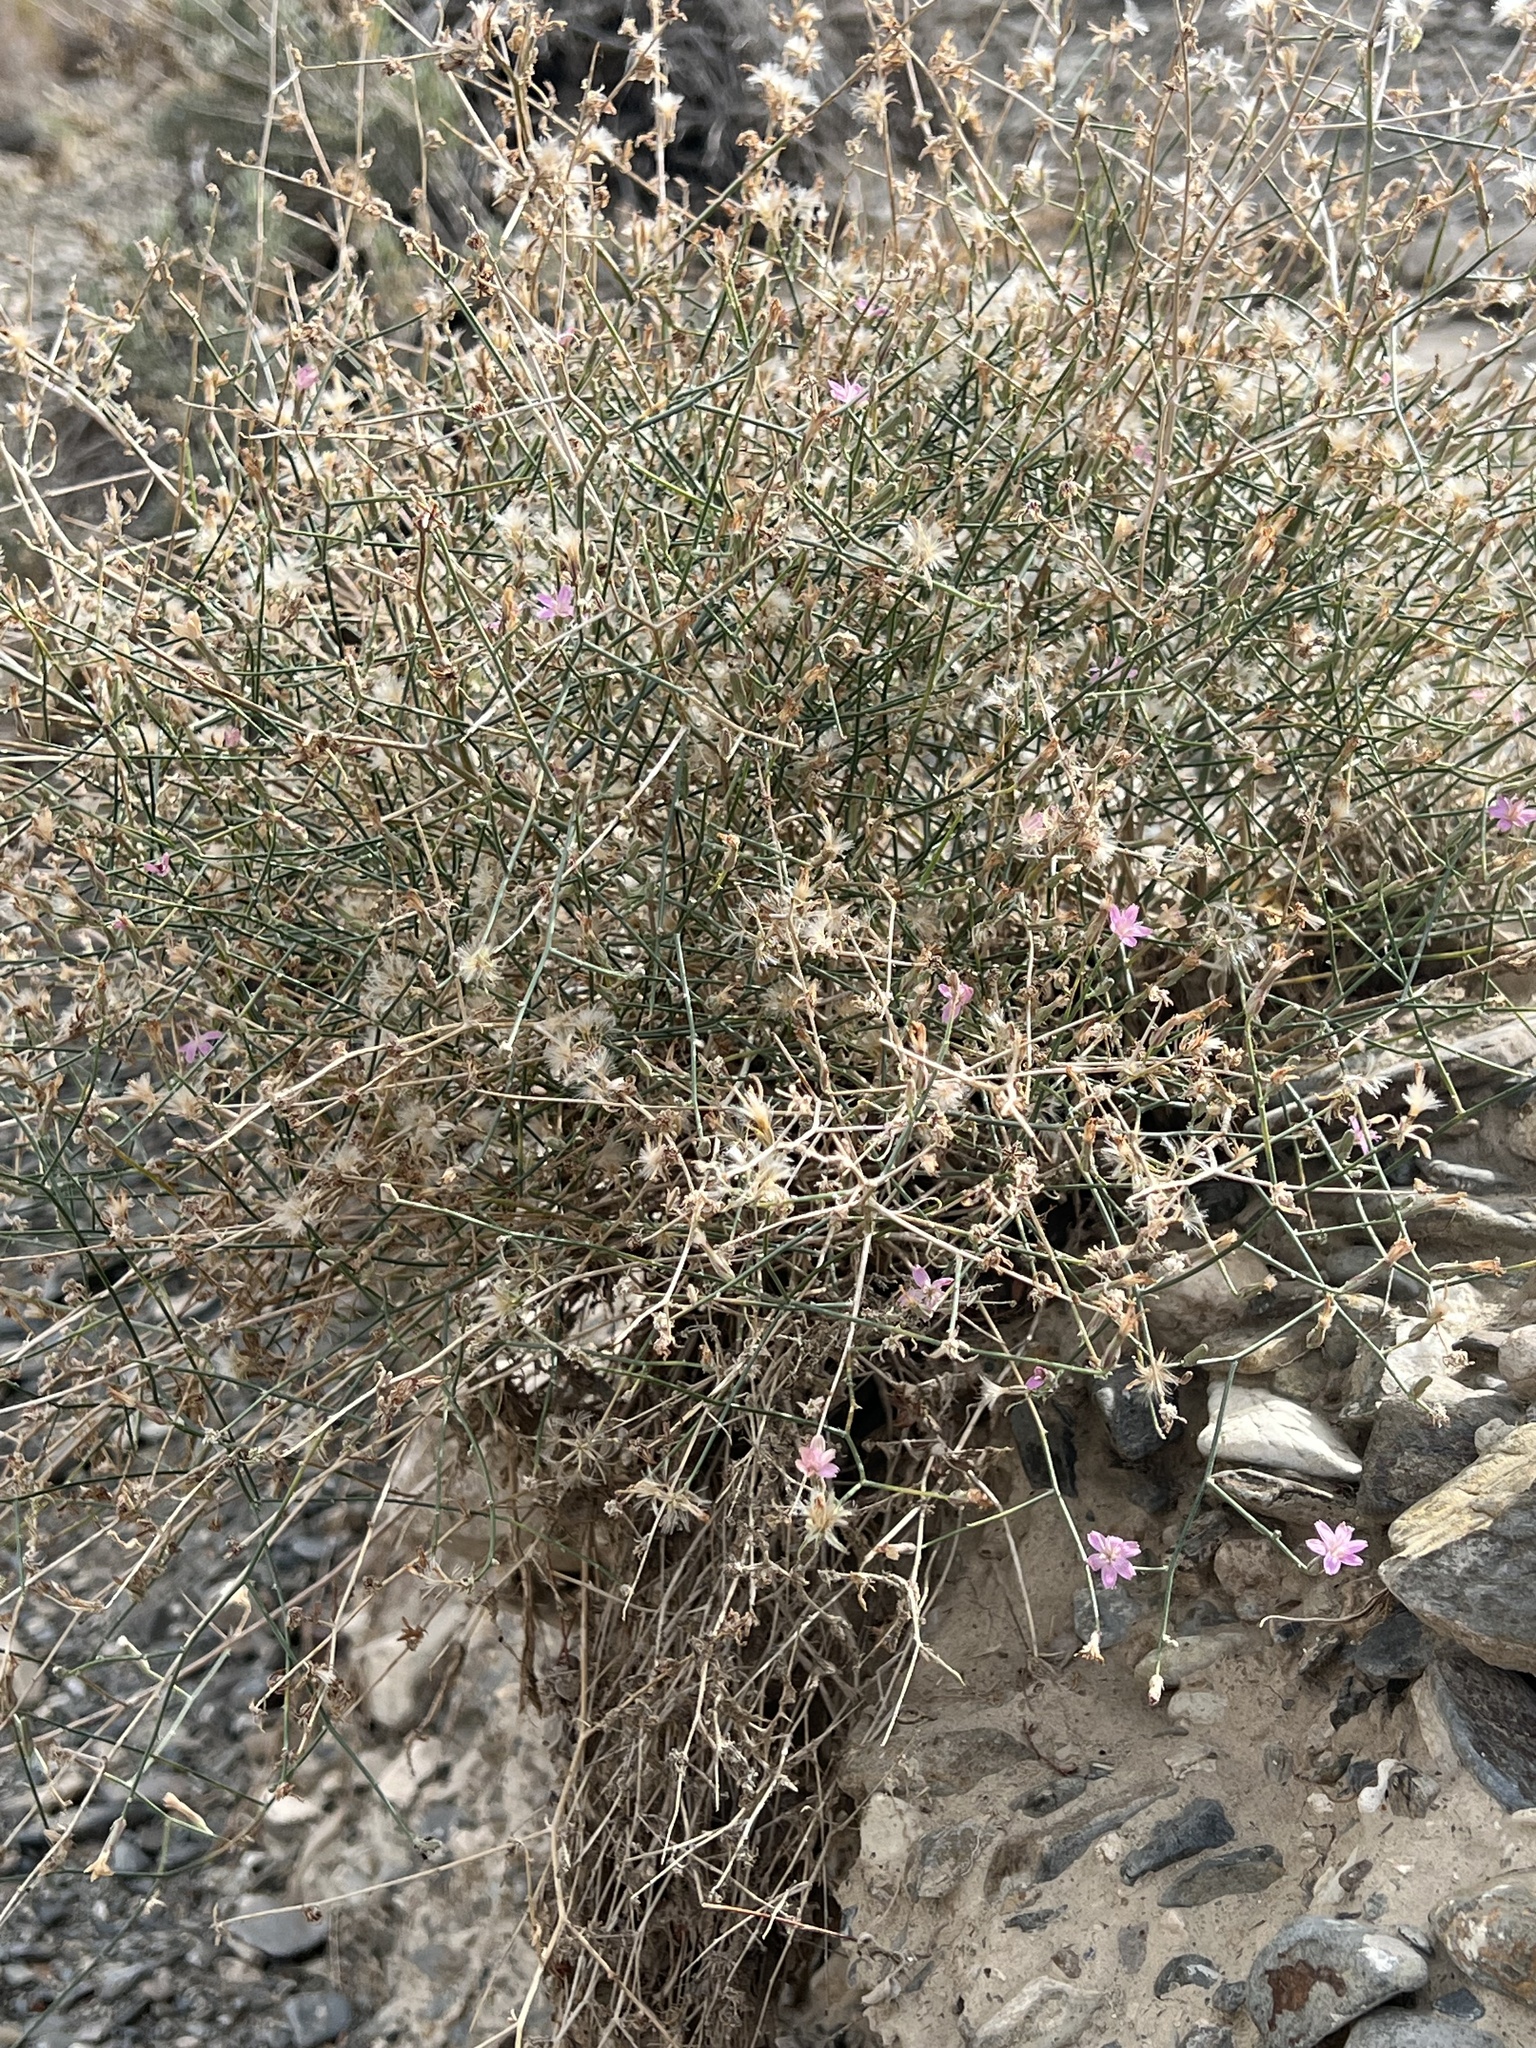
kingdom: Plantae
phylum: Tracheophyta
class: Magnoliopsida
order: Asterales
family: Asteraceae
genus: Stephanomeria
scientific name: Stephanomeria pauciflora
